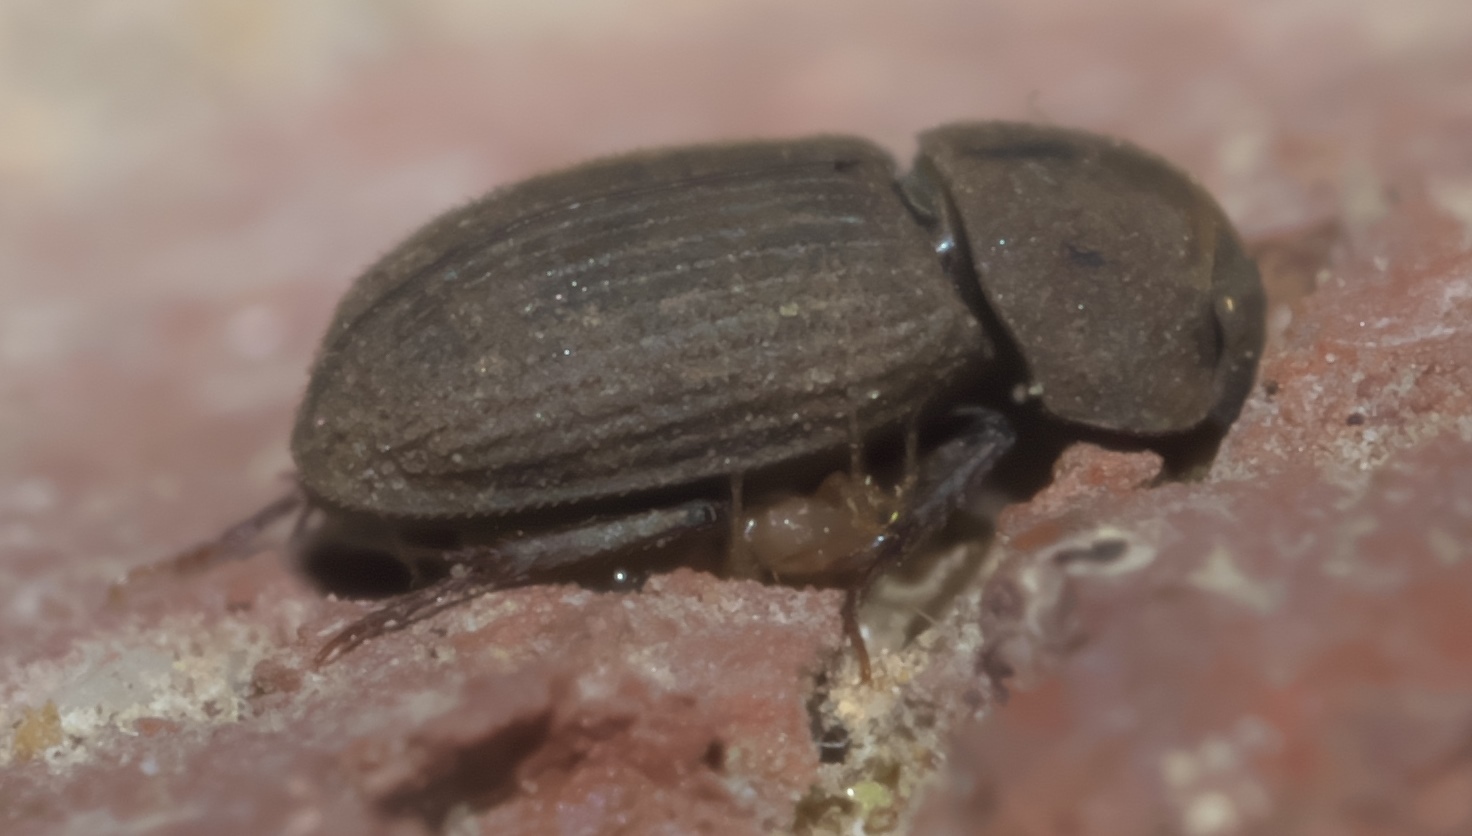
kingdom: Animalia
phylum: Arthropoda
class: Insecta
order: Coleoptera
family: Scarabaeidae
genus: Ataenius
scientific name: Ataenius imbricatus
